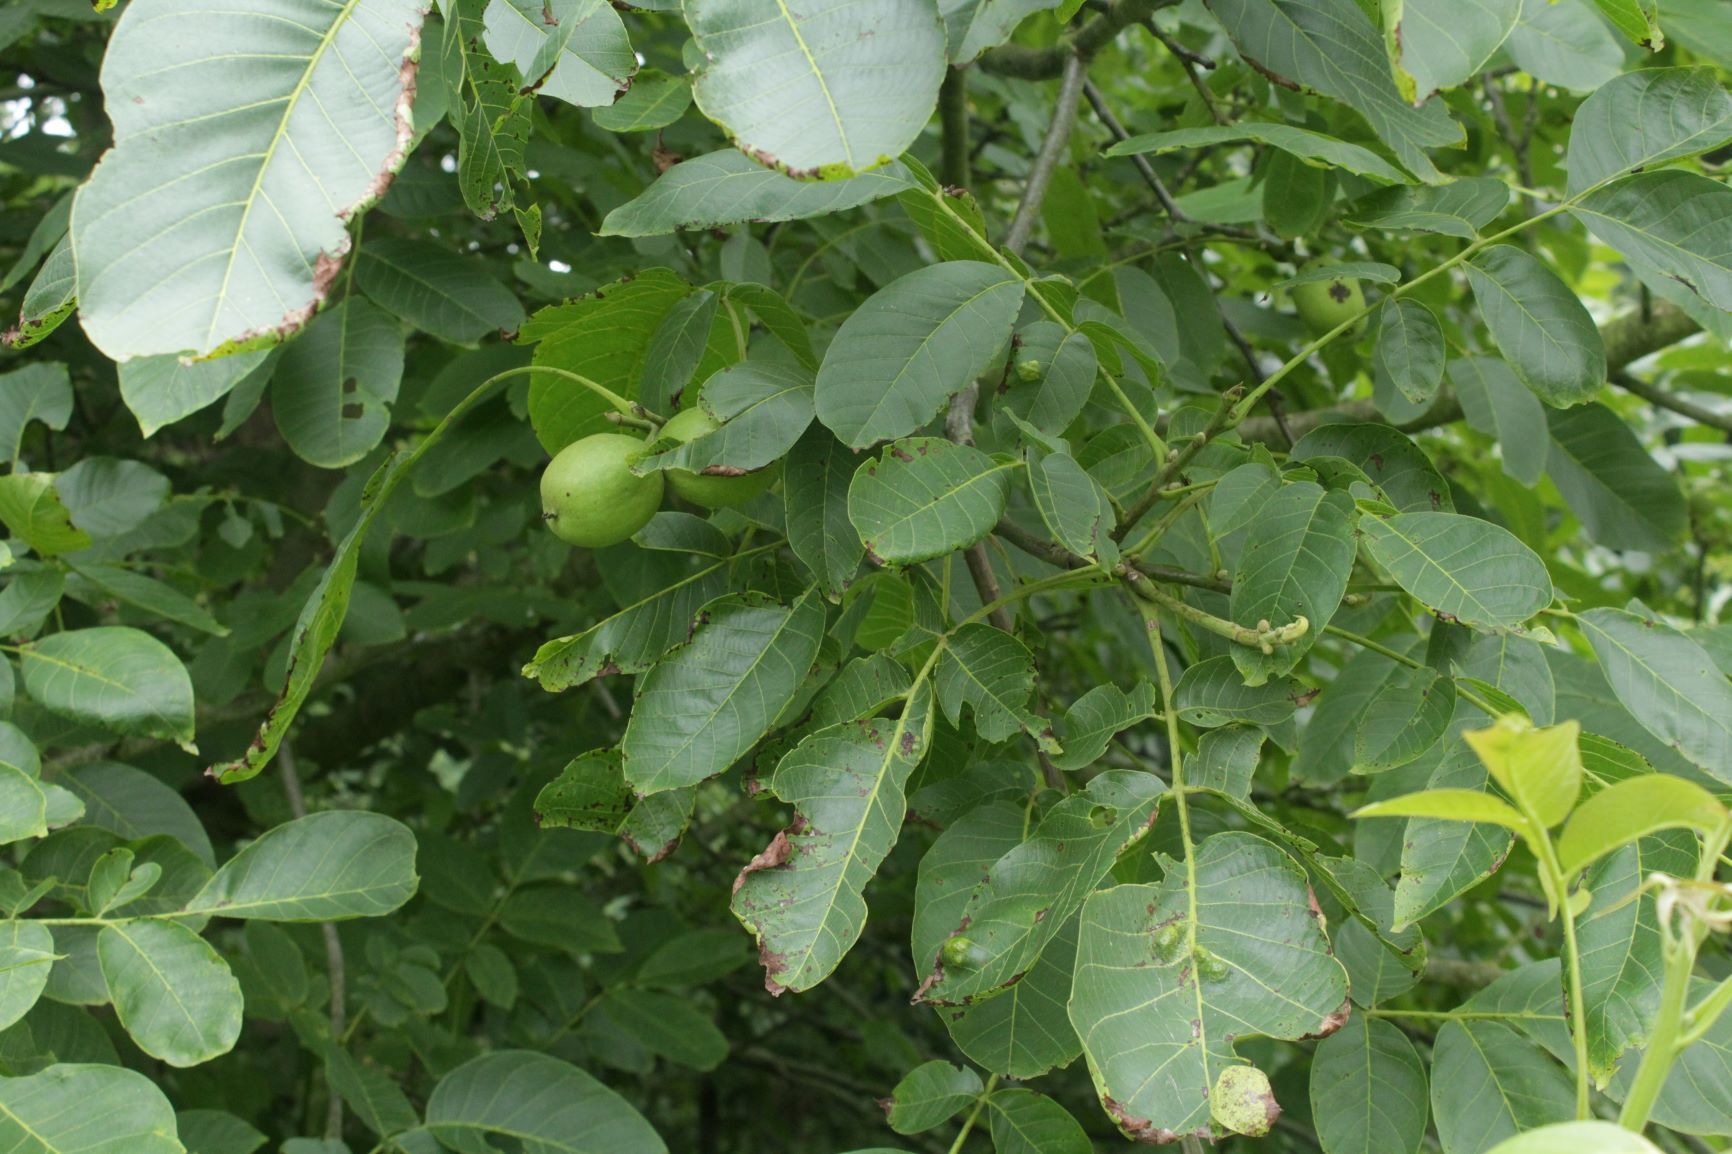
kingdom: Plantae
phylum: Tracheophyta
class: Magnoliopsida
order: Fagales
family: Juglandaceae
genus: Juglans
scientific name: Juglans regia
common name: Walnut
